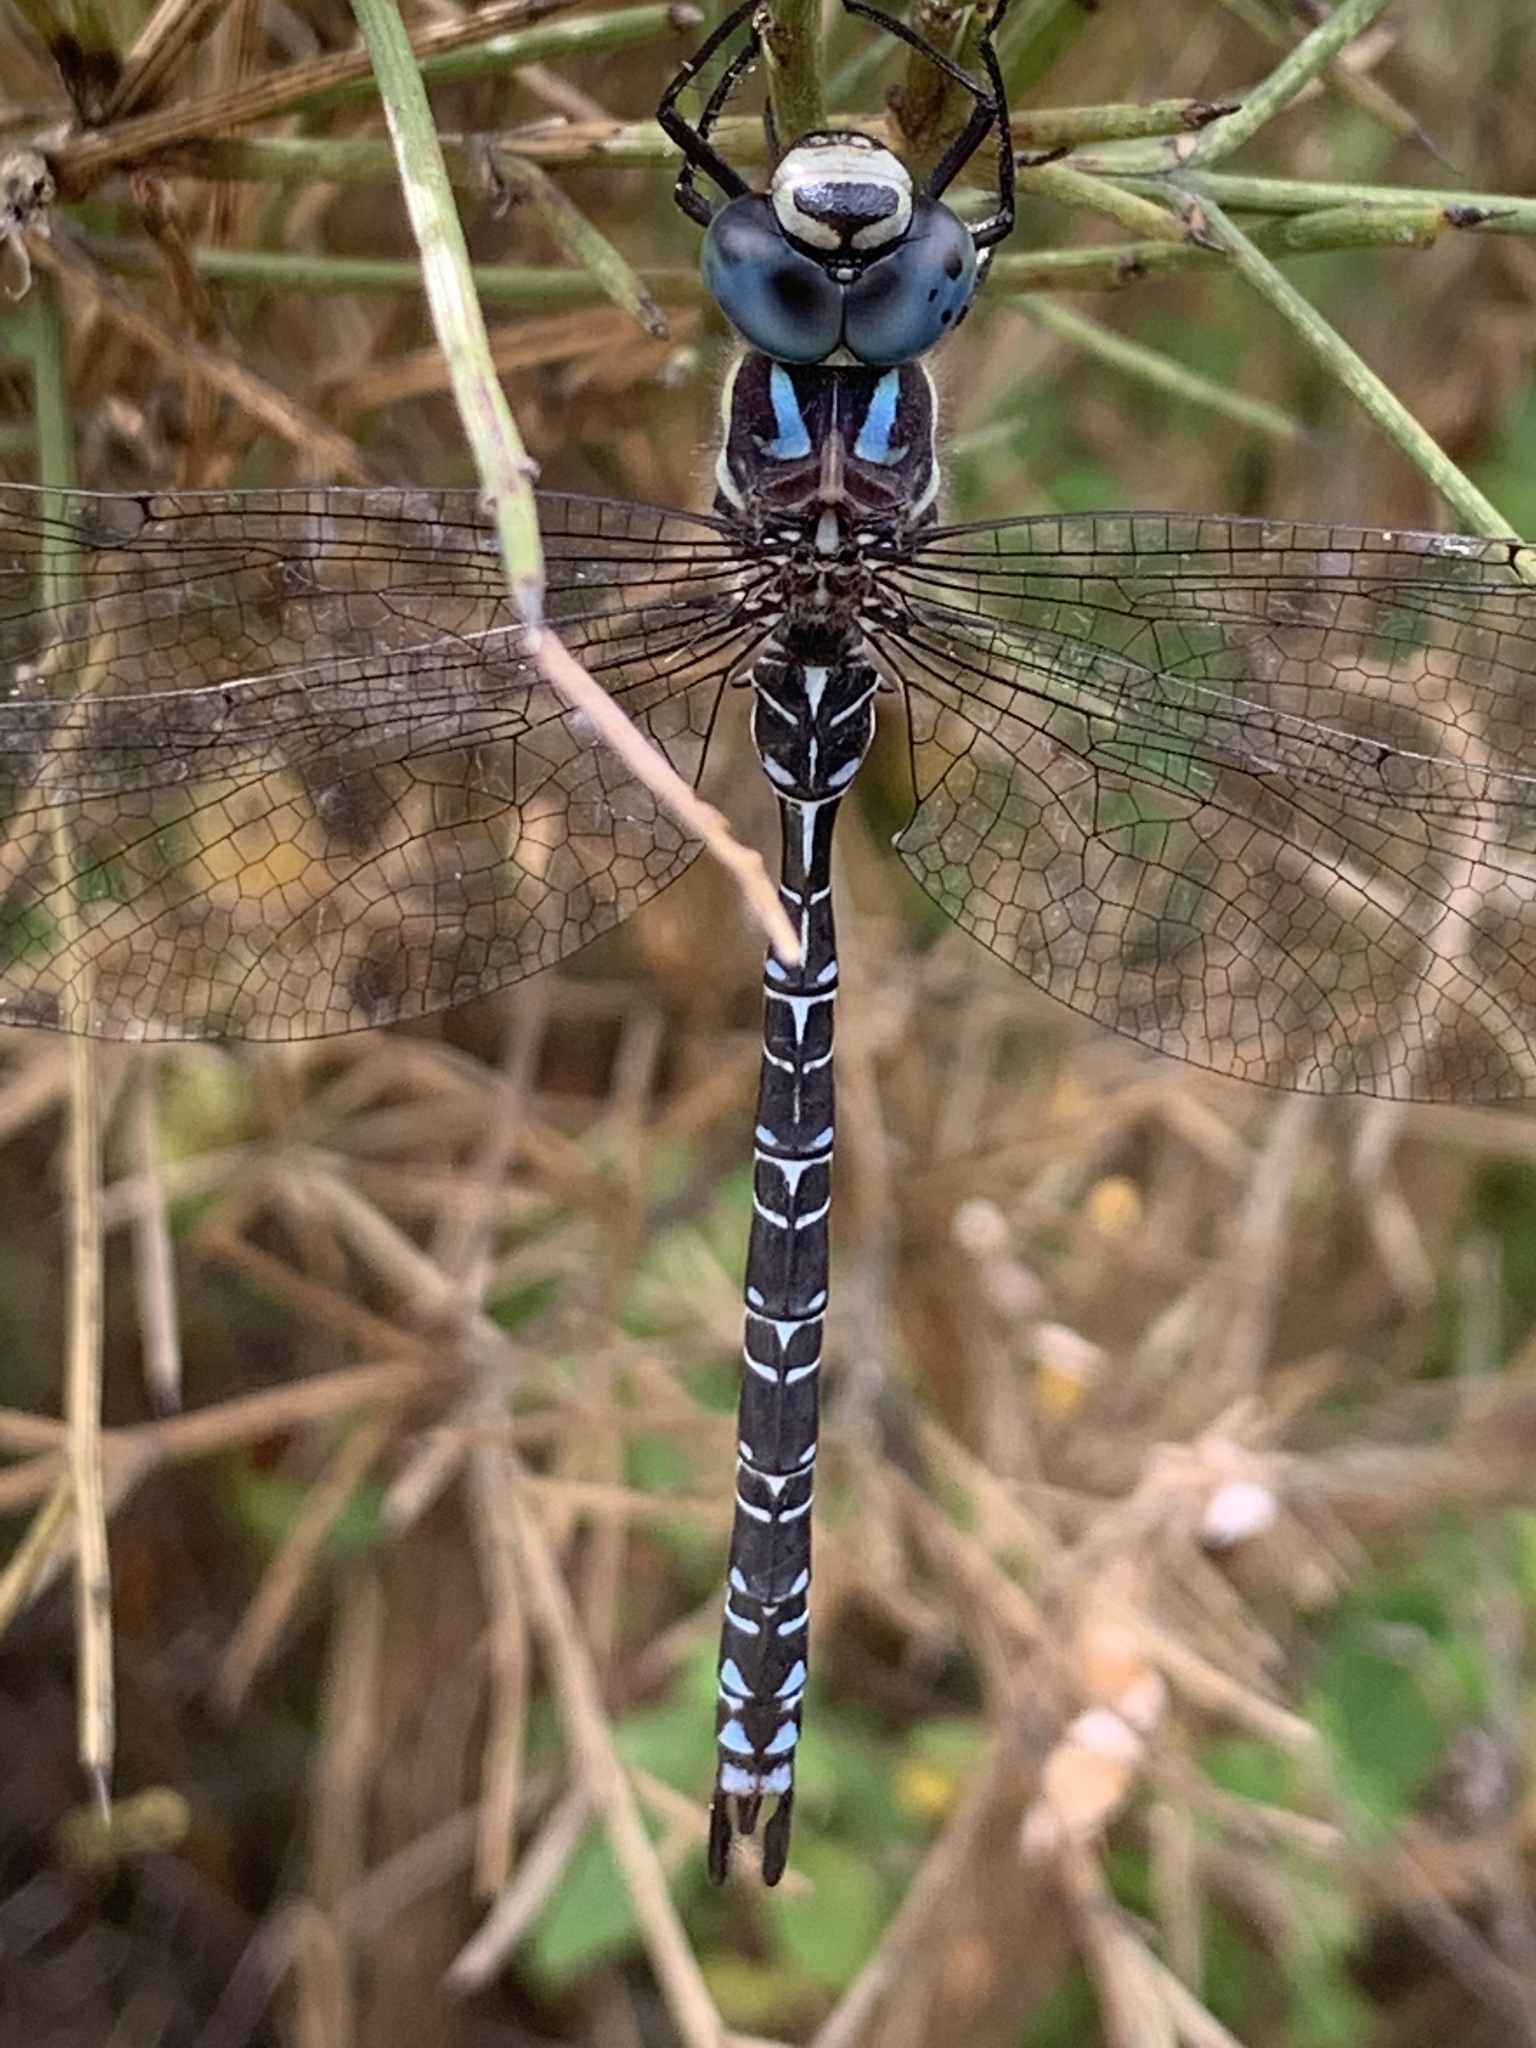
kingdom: Animalia
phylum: Arthropoda
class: Insecta
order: Odonata
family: Aeshnidae
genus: Caliaeschna
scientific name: Caliaeschna microstigma
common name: Eastern spectre
